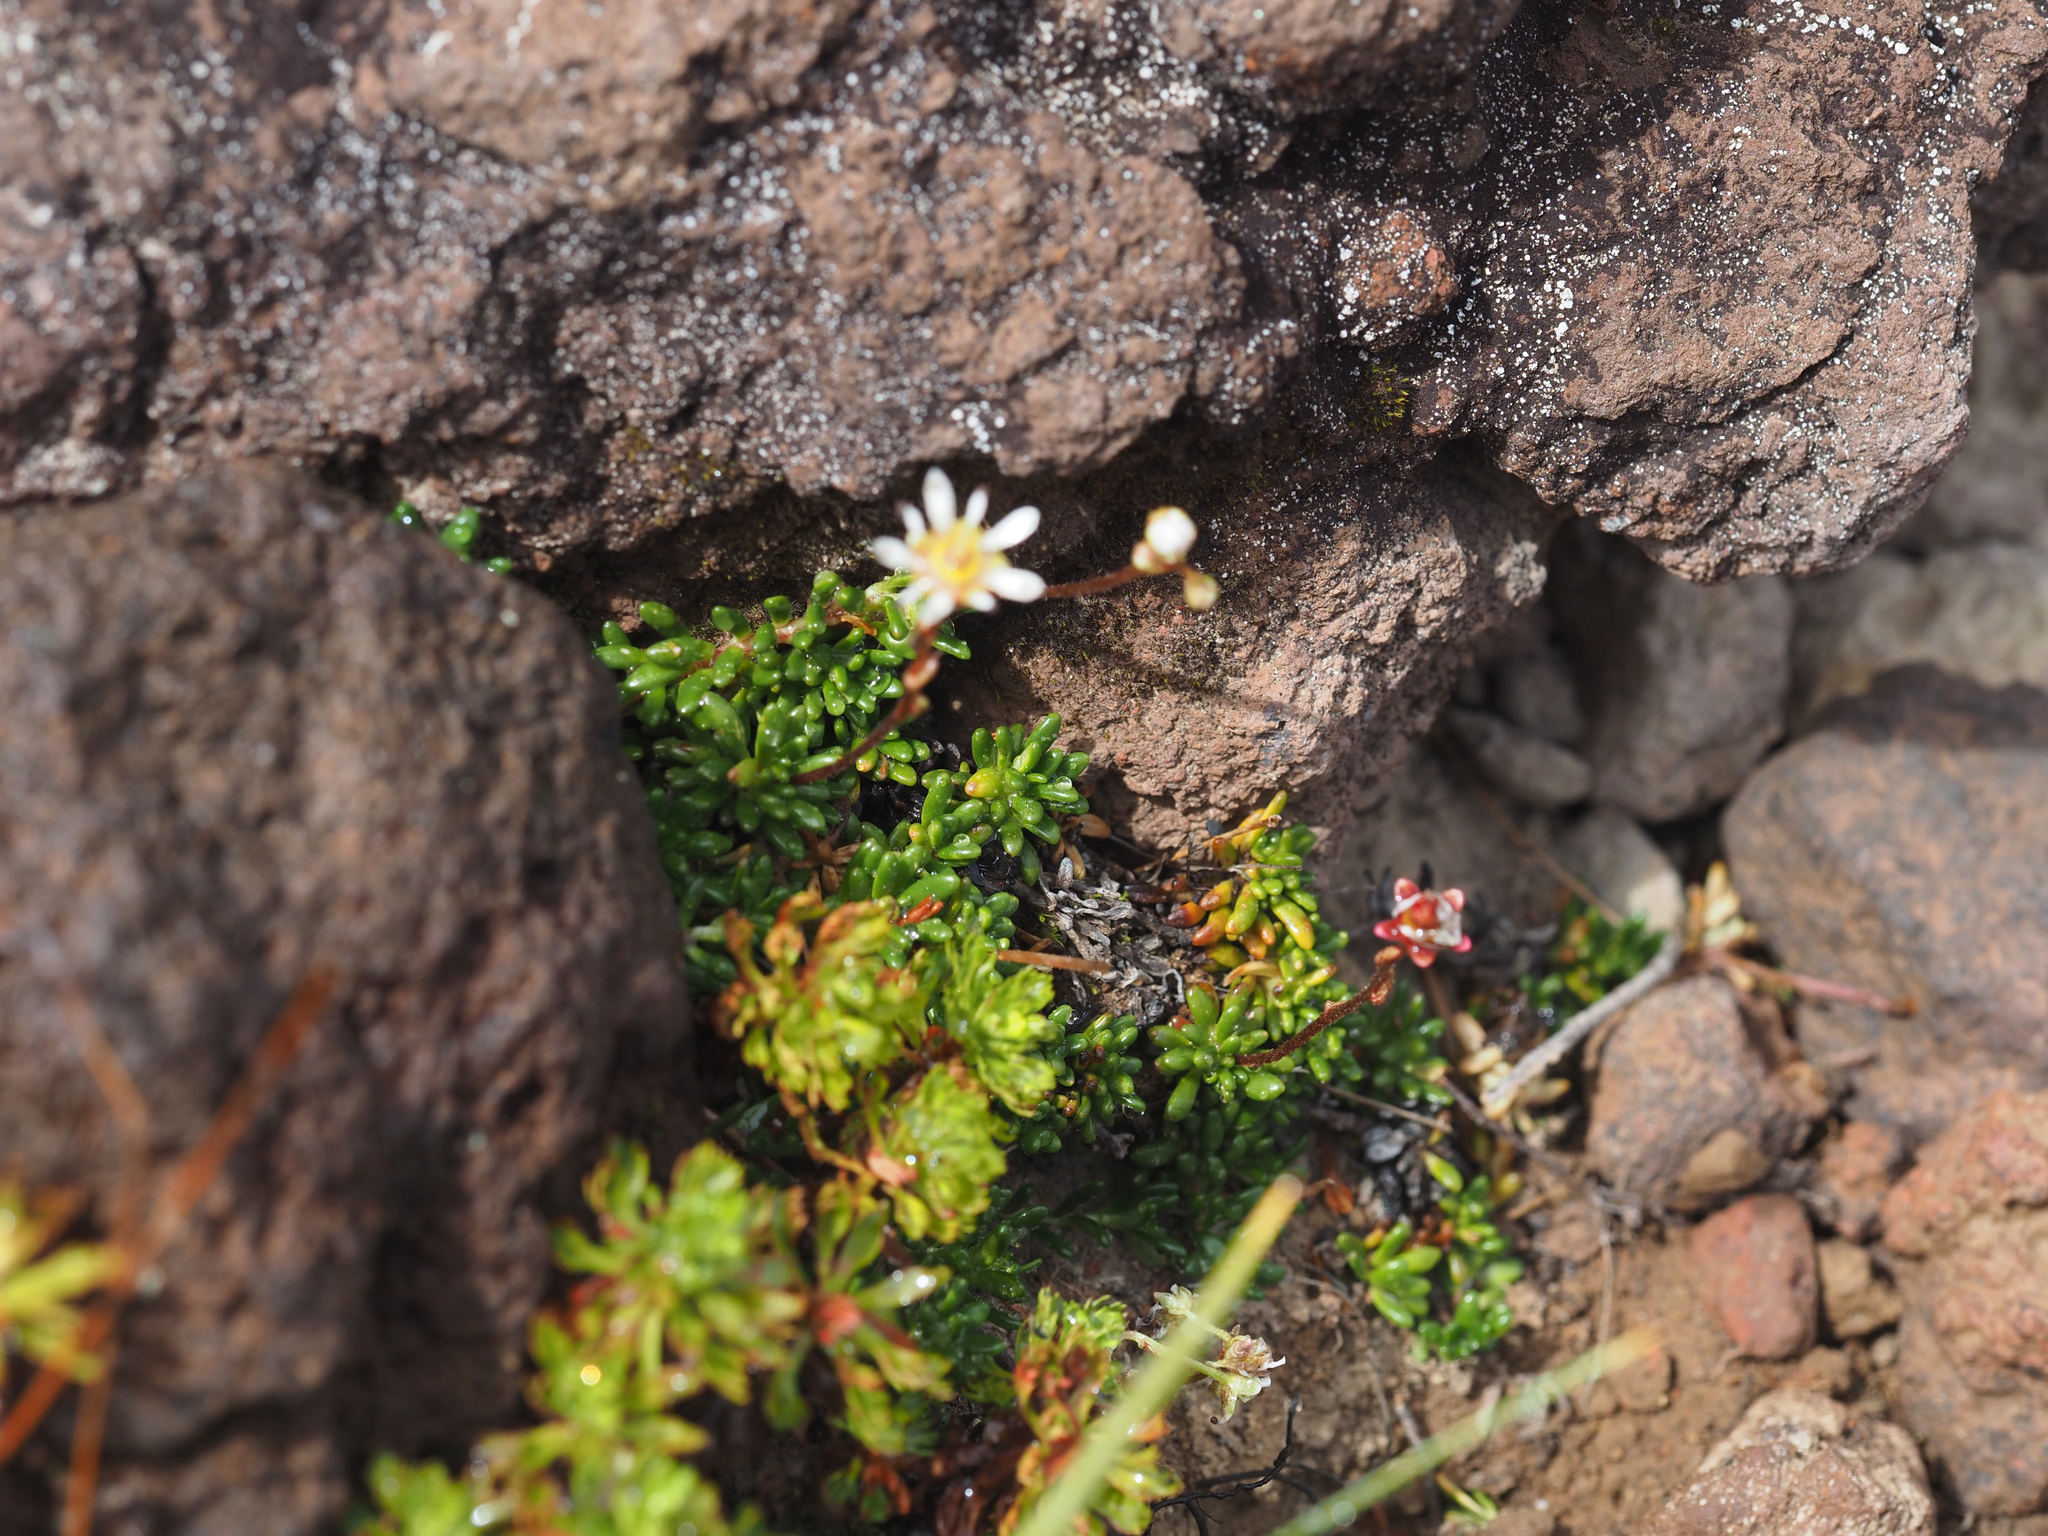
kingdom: Plantae
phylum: Tracheophyta
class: Magnoliopsida
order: Saxifragales
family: Saxifragaceae
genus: Micranthes
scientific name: Micranthes tolmiei
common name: Tolmie's saxifrage
